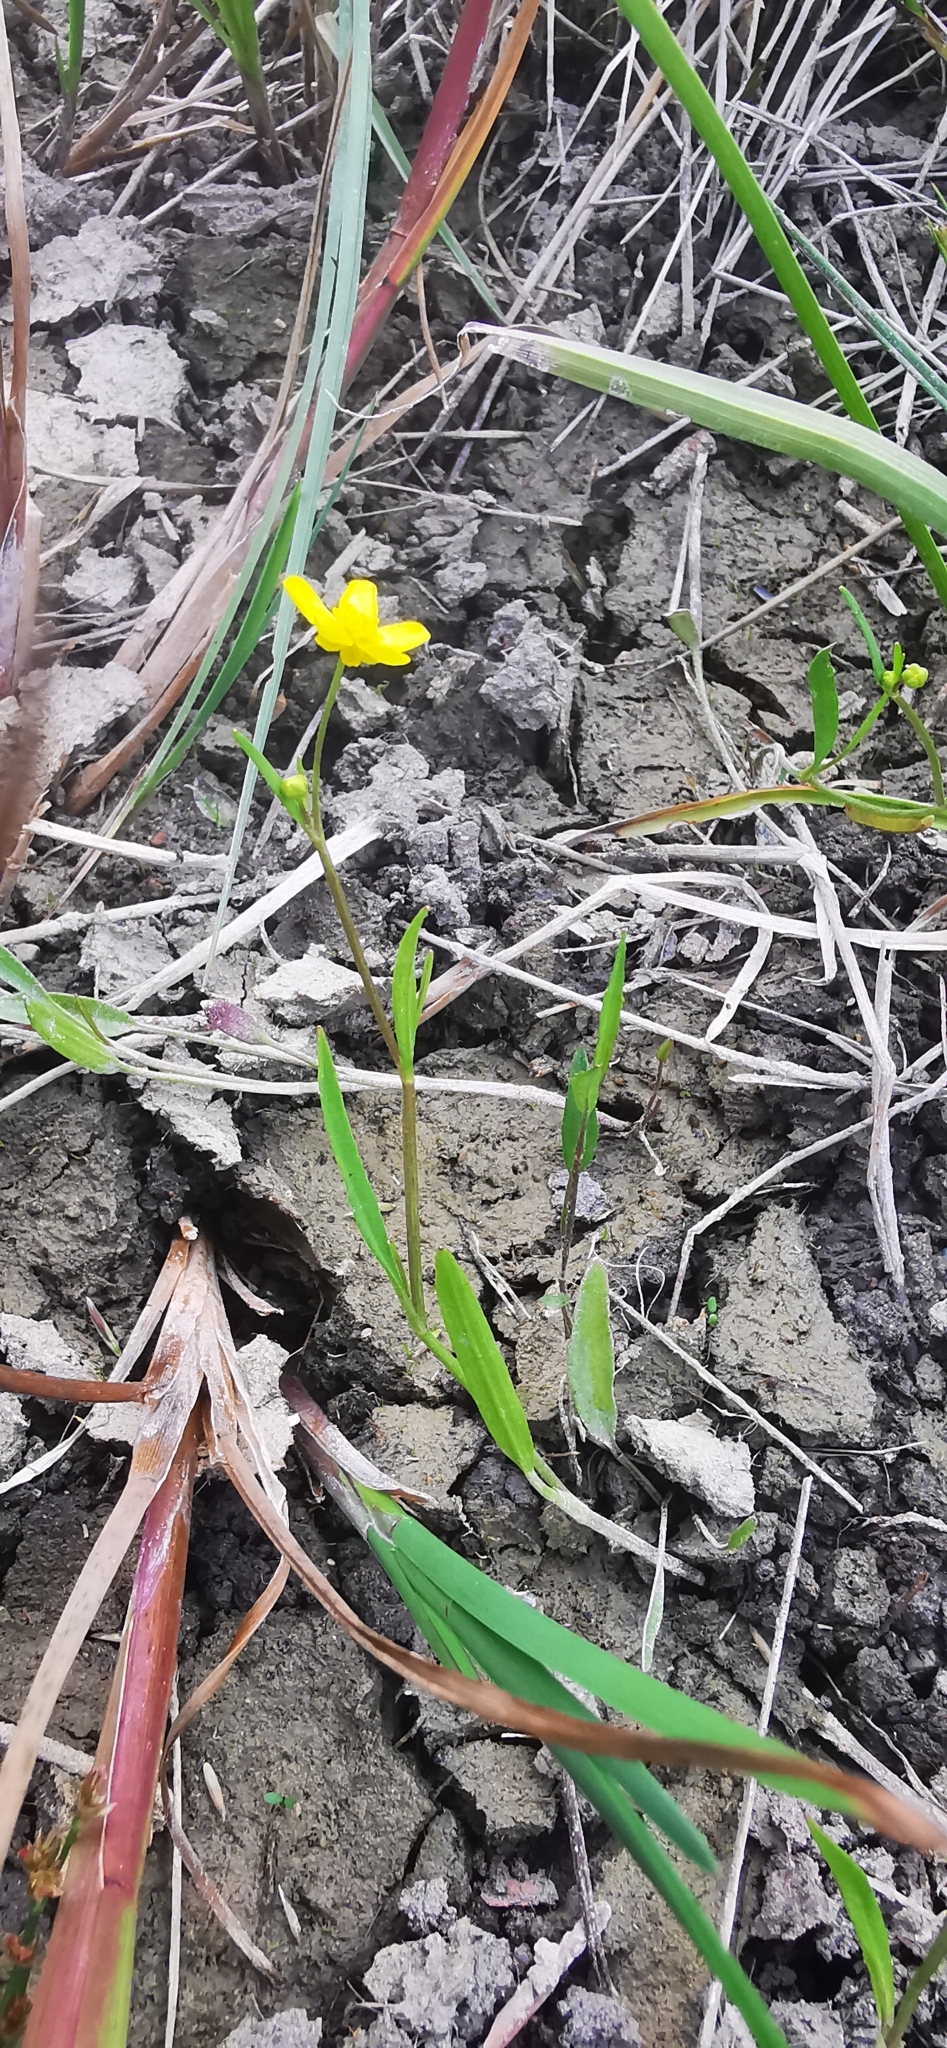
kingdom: Plantae
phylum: Tracheophyta
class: Magnoliopsida
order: Ranunculales
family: Ranunculaceae
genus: Ranunculus
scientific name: Ranunculus flammula
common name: Lesser spearwort
